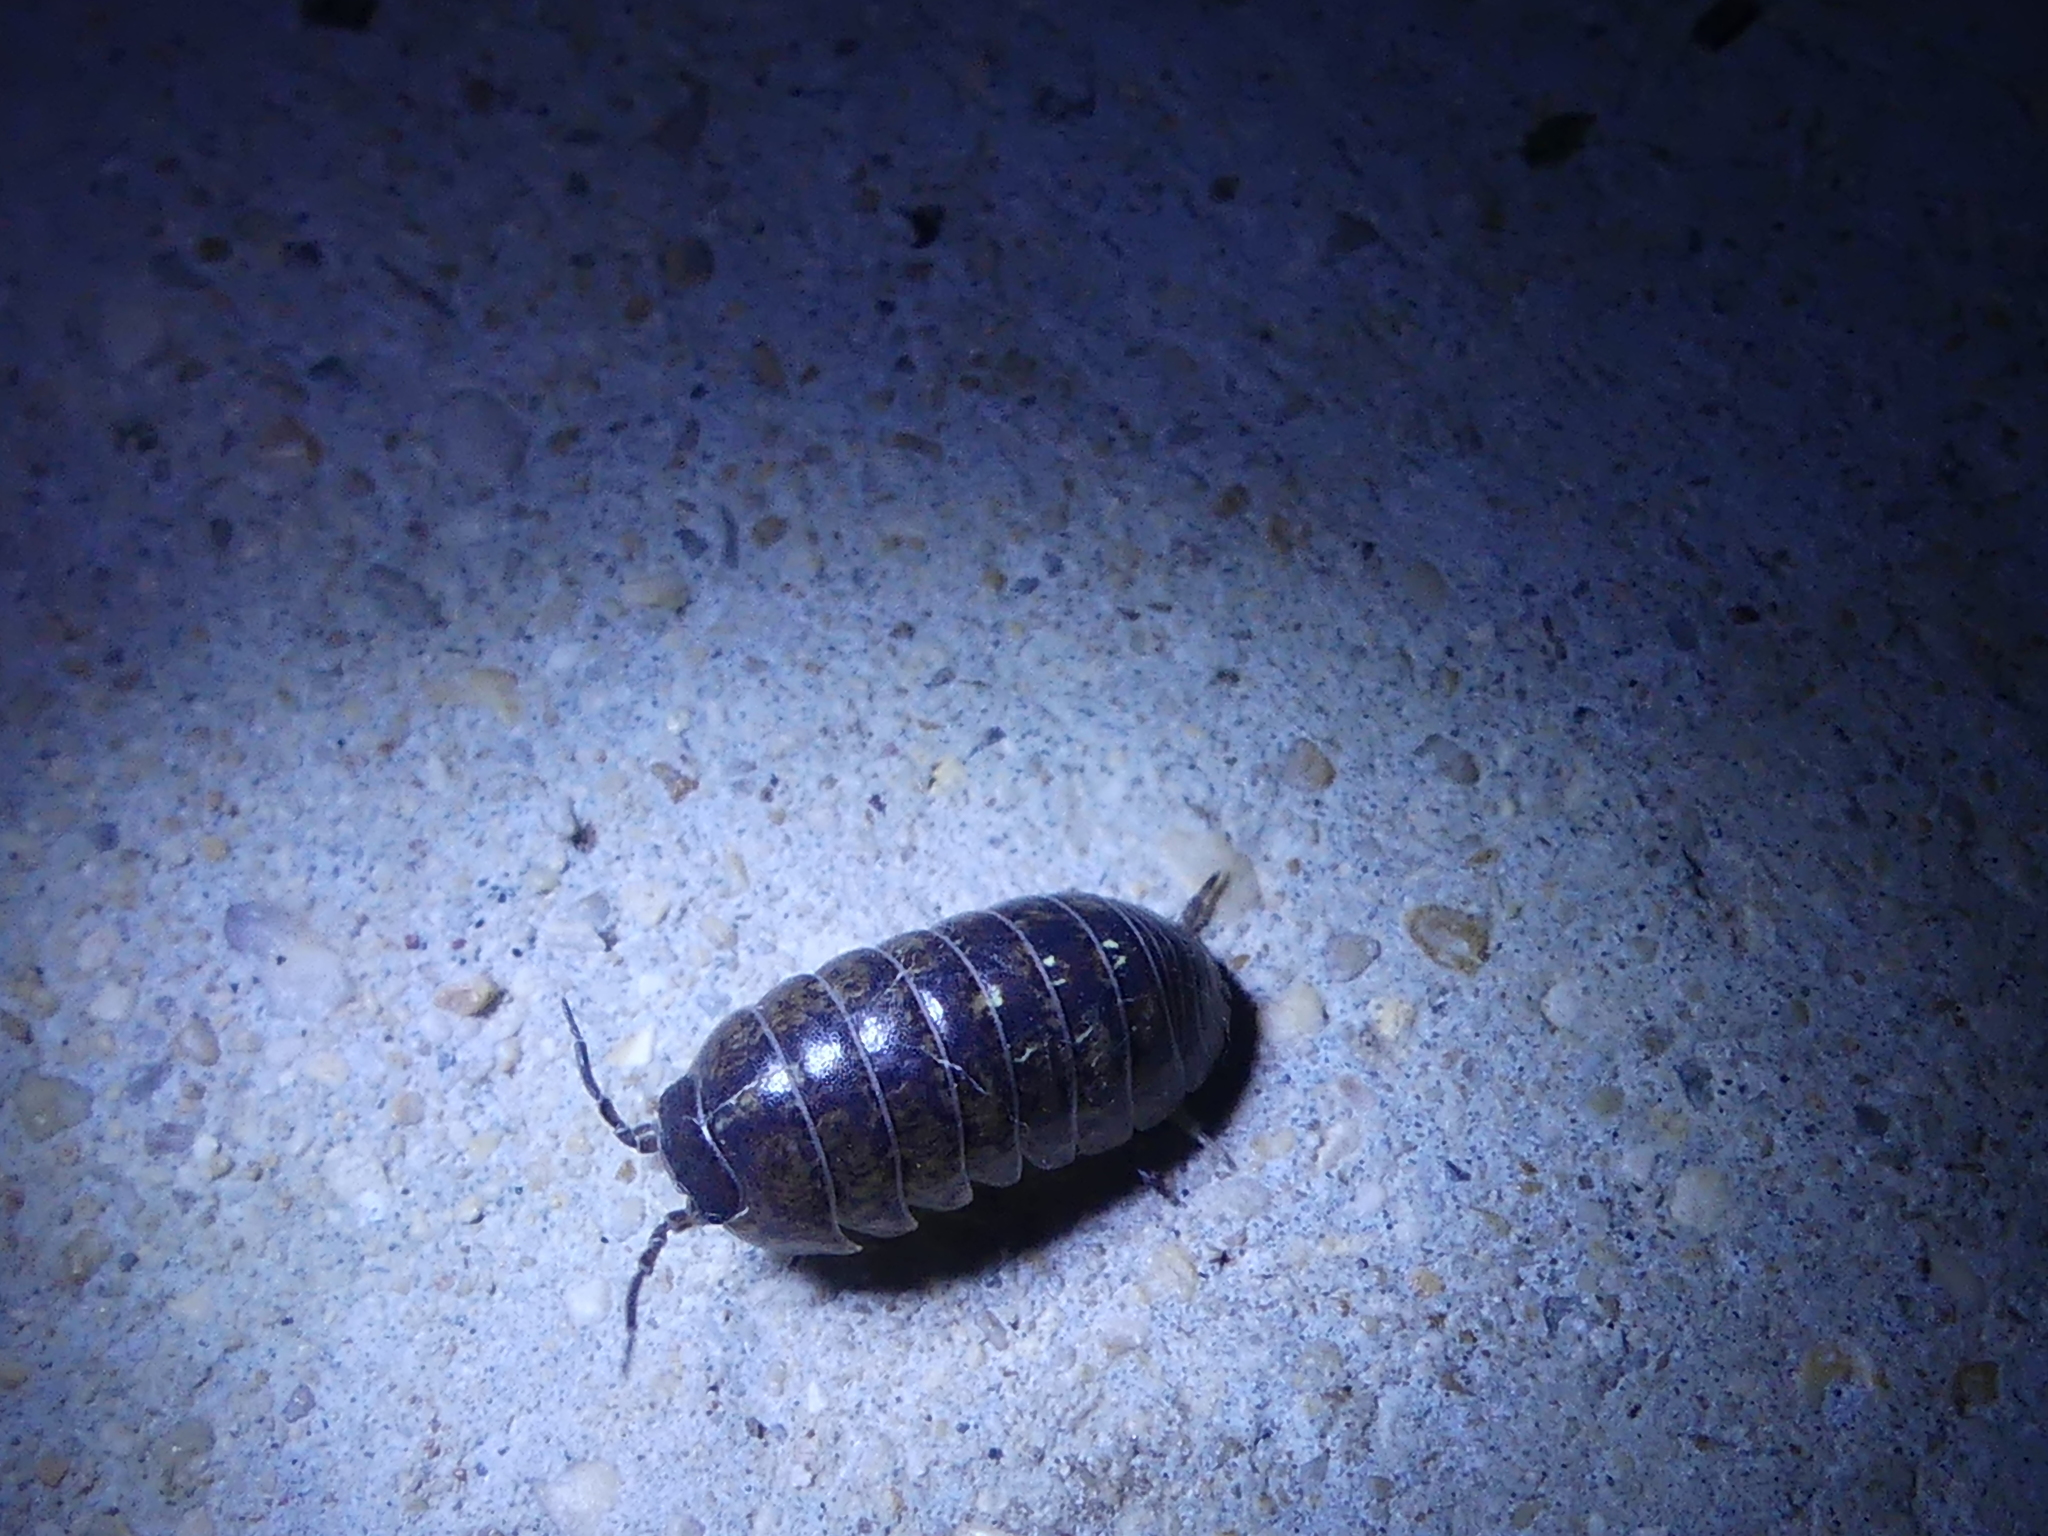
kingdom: Animalia
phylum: Arthropoda
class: Malacostraca
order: Isopoda
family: Armadillidiidae
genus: Armadillidium
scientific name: Armadillidium vulgare
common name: Common pill woodlouse
